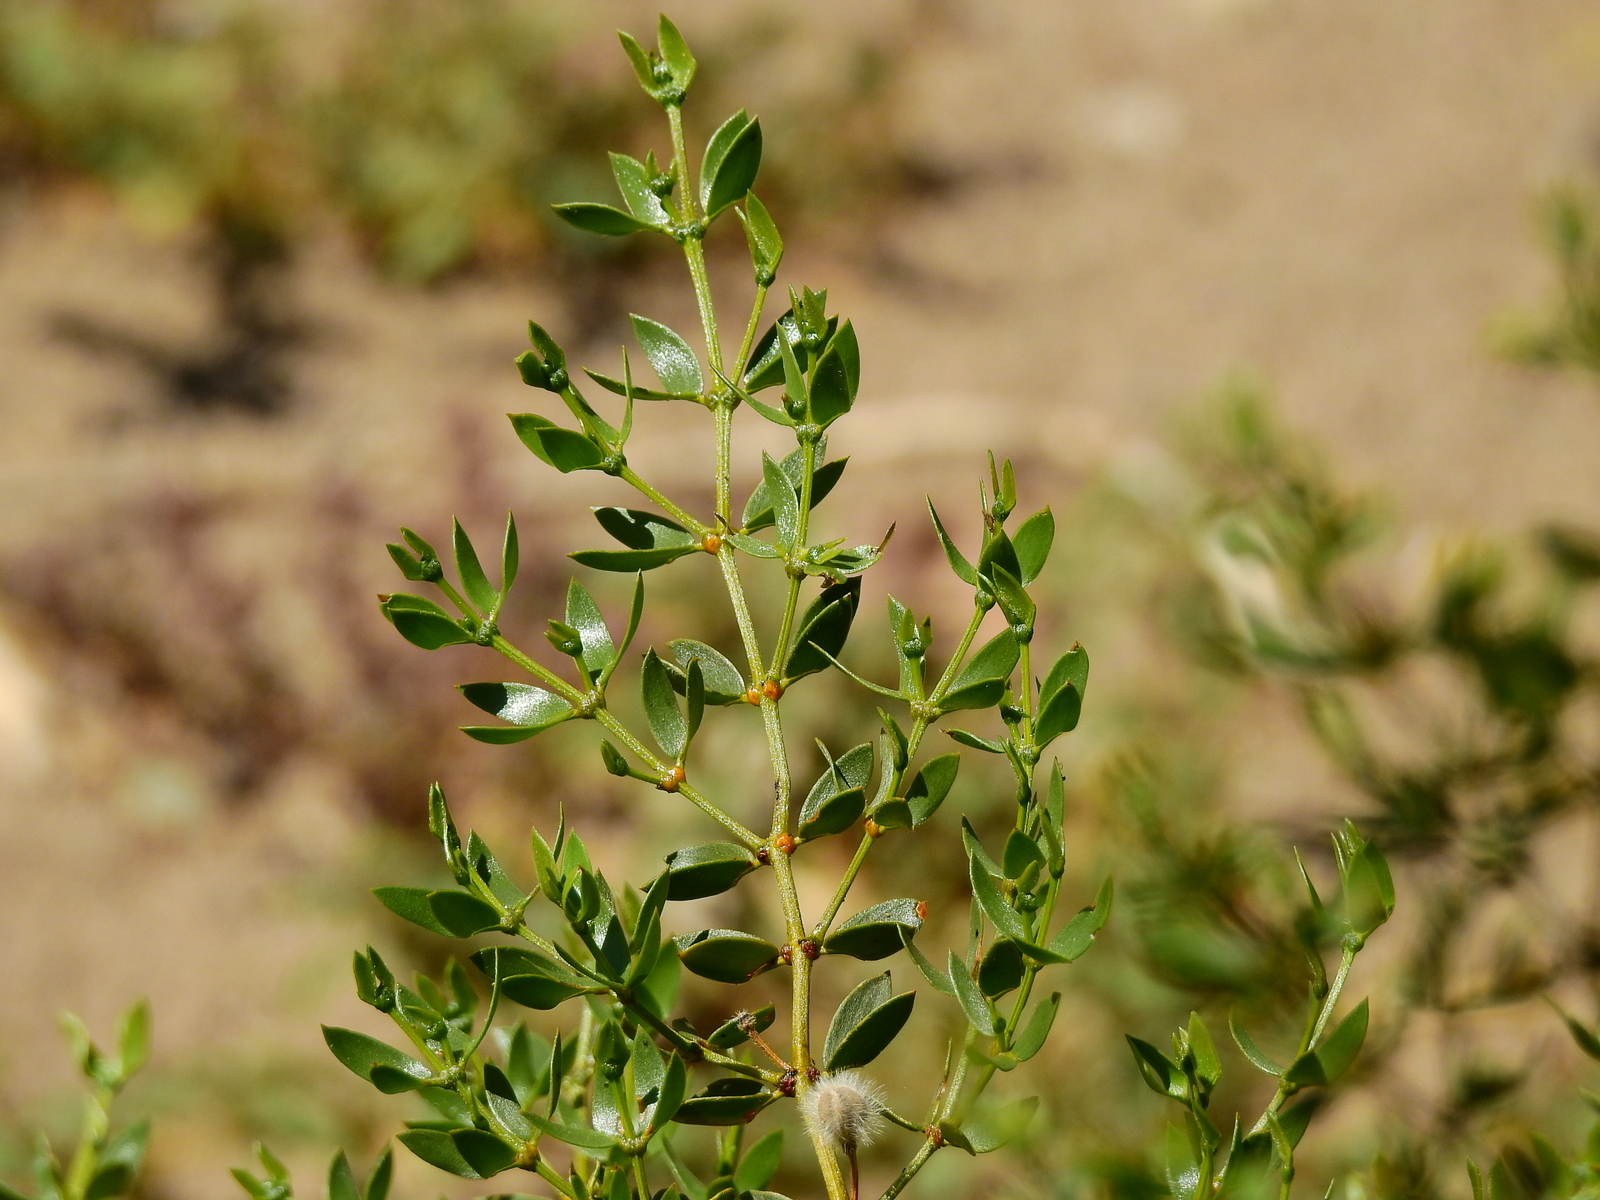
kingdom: Plantae
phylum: Tracheophyta
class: Magnoliopsida
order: Zygophyllales
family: Zygophyllaceae
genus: Larrea
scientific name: Larrea divaricata
